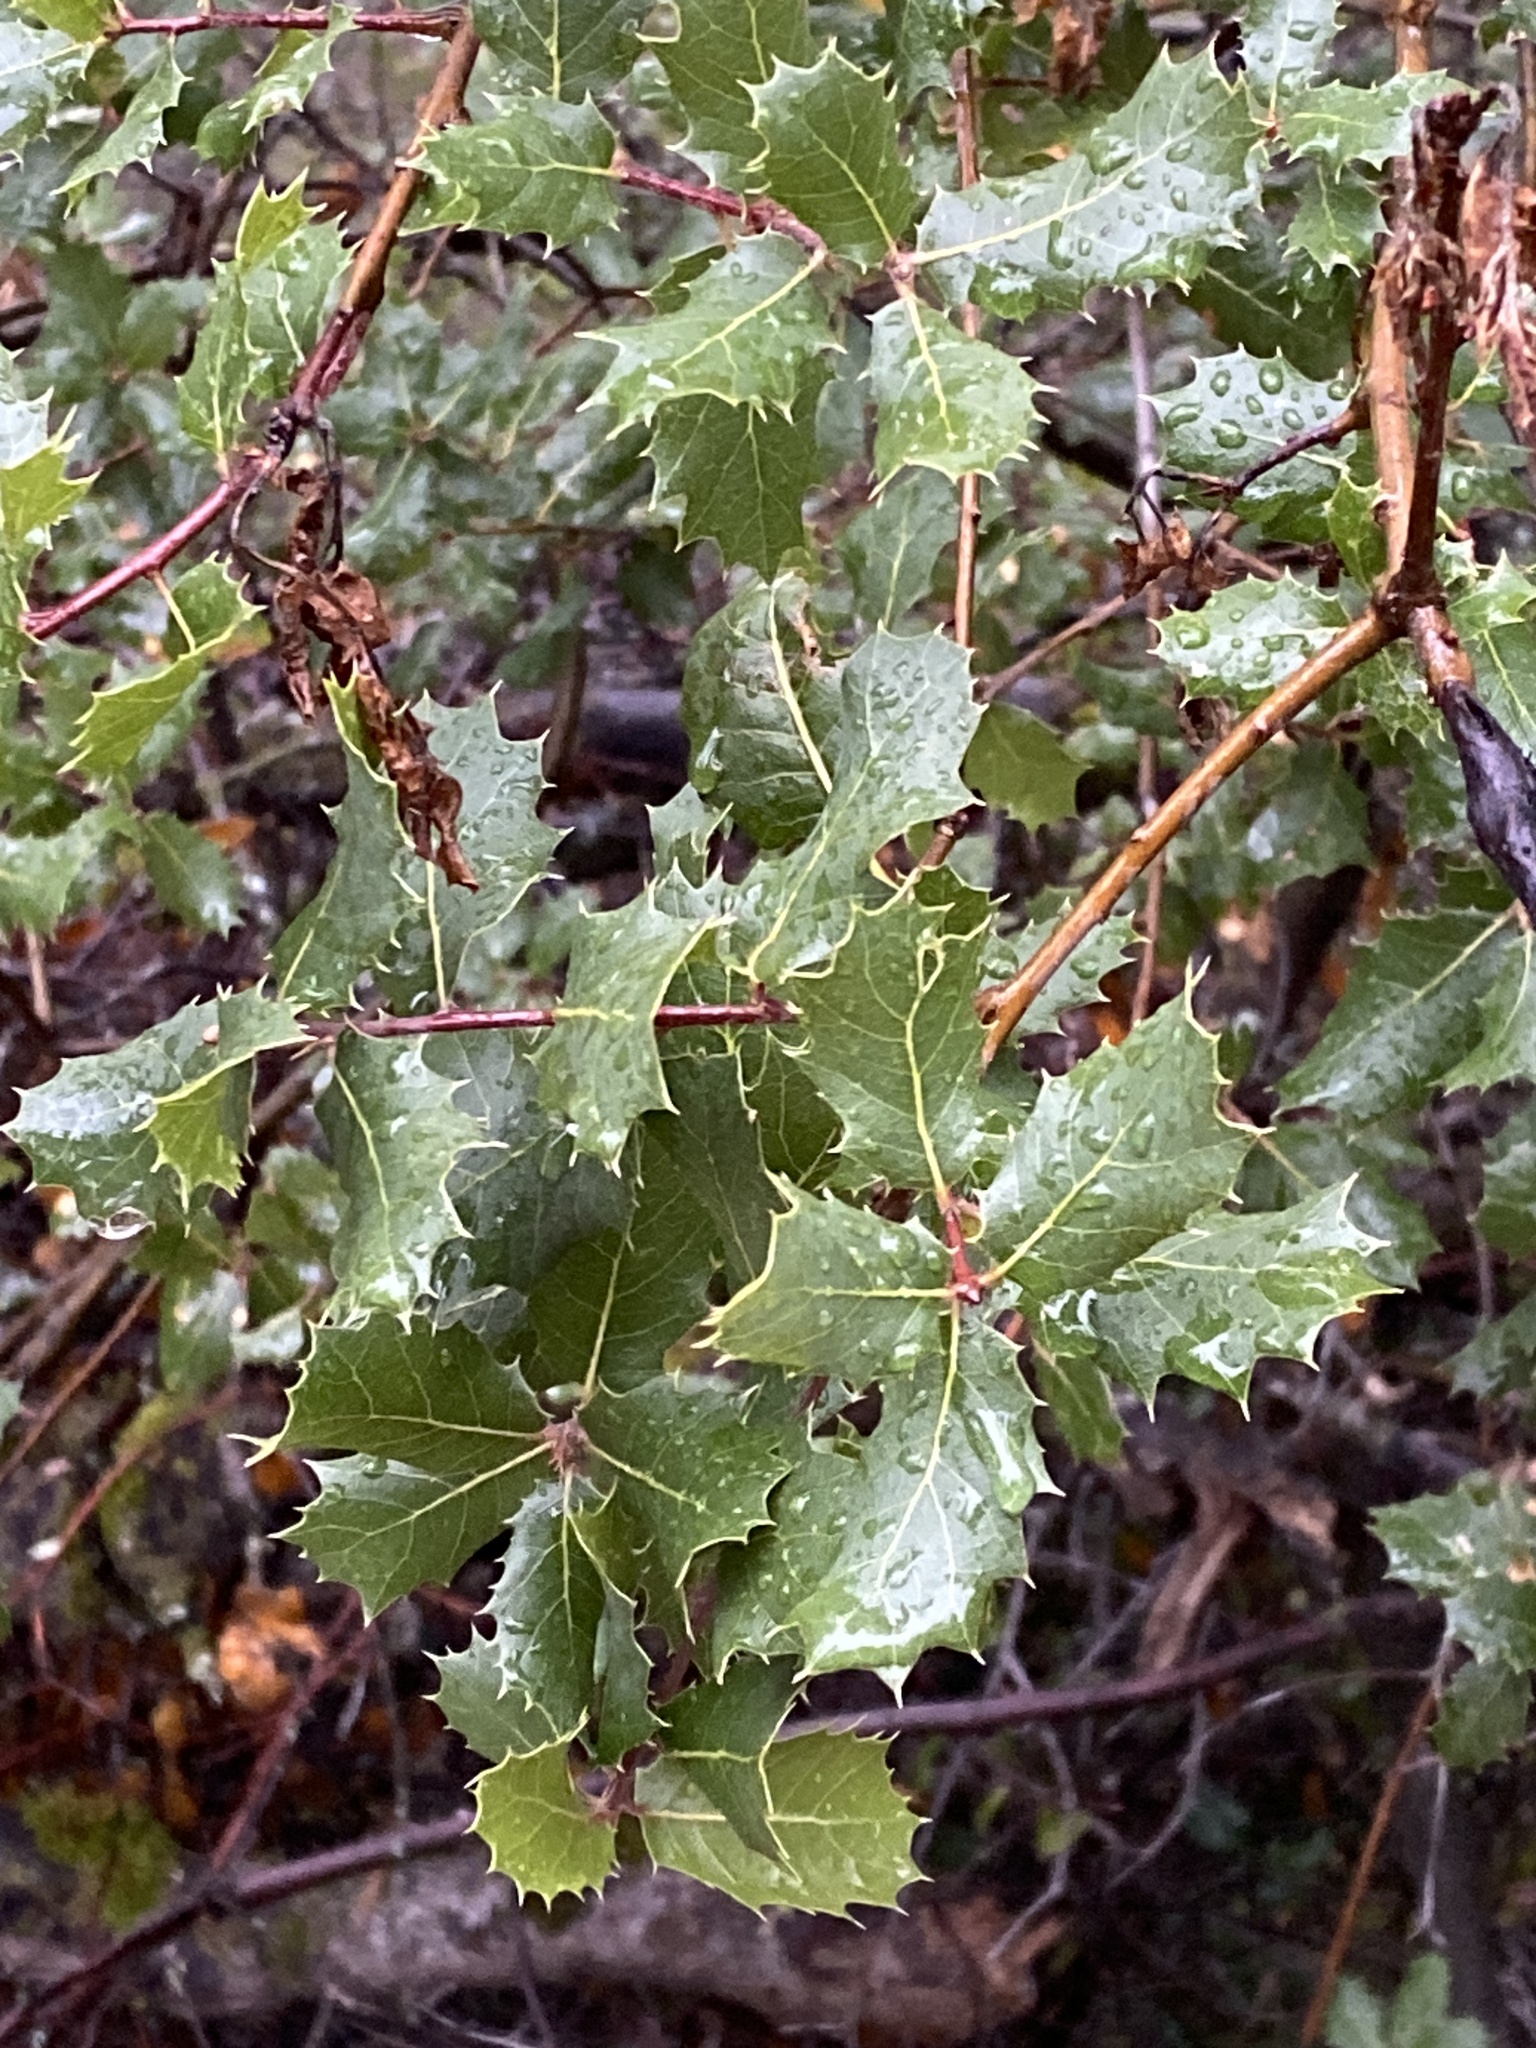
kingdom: Plantae
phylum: Tracheophyta
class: Magnoliopsida
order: Fagales
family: Fagaceae
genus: Quercus
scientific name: Quercus wislizeni
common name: Interior live oak
